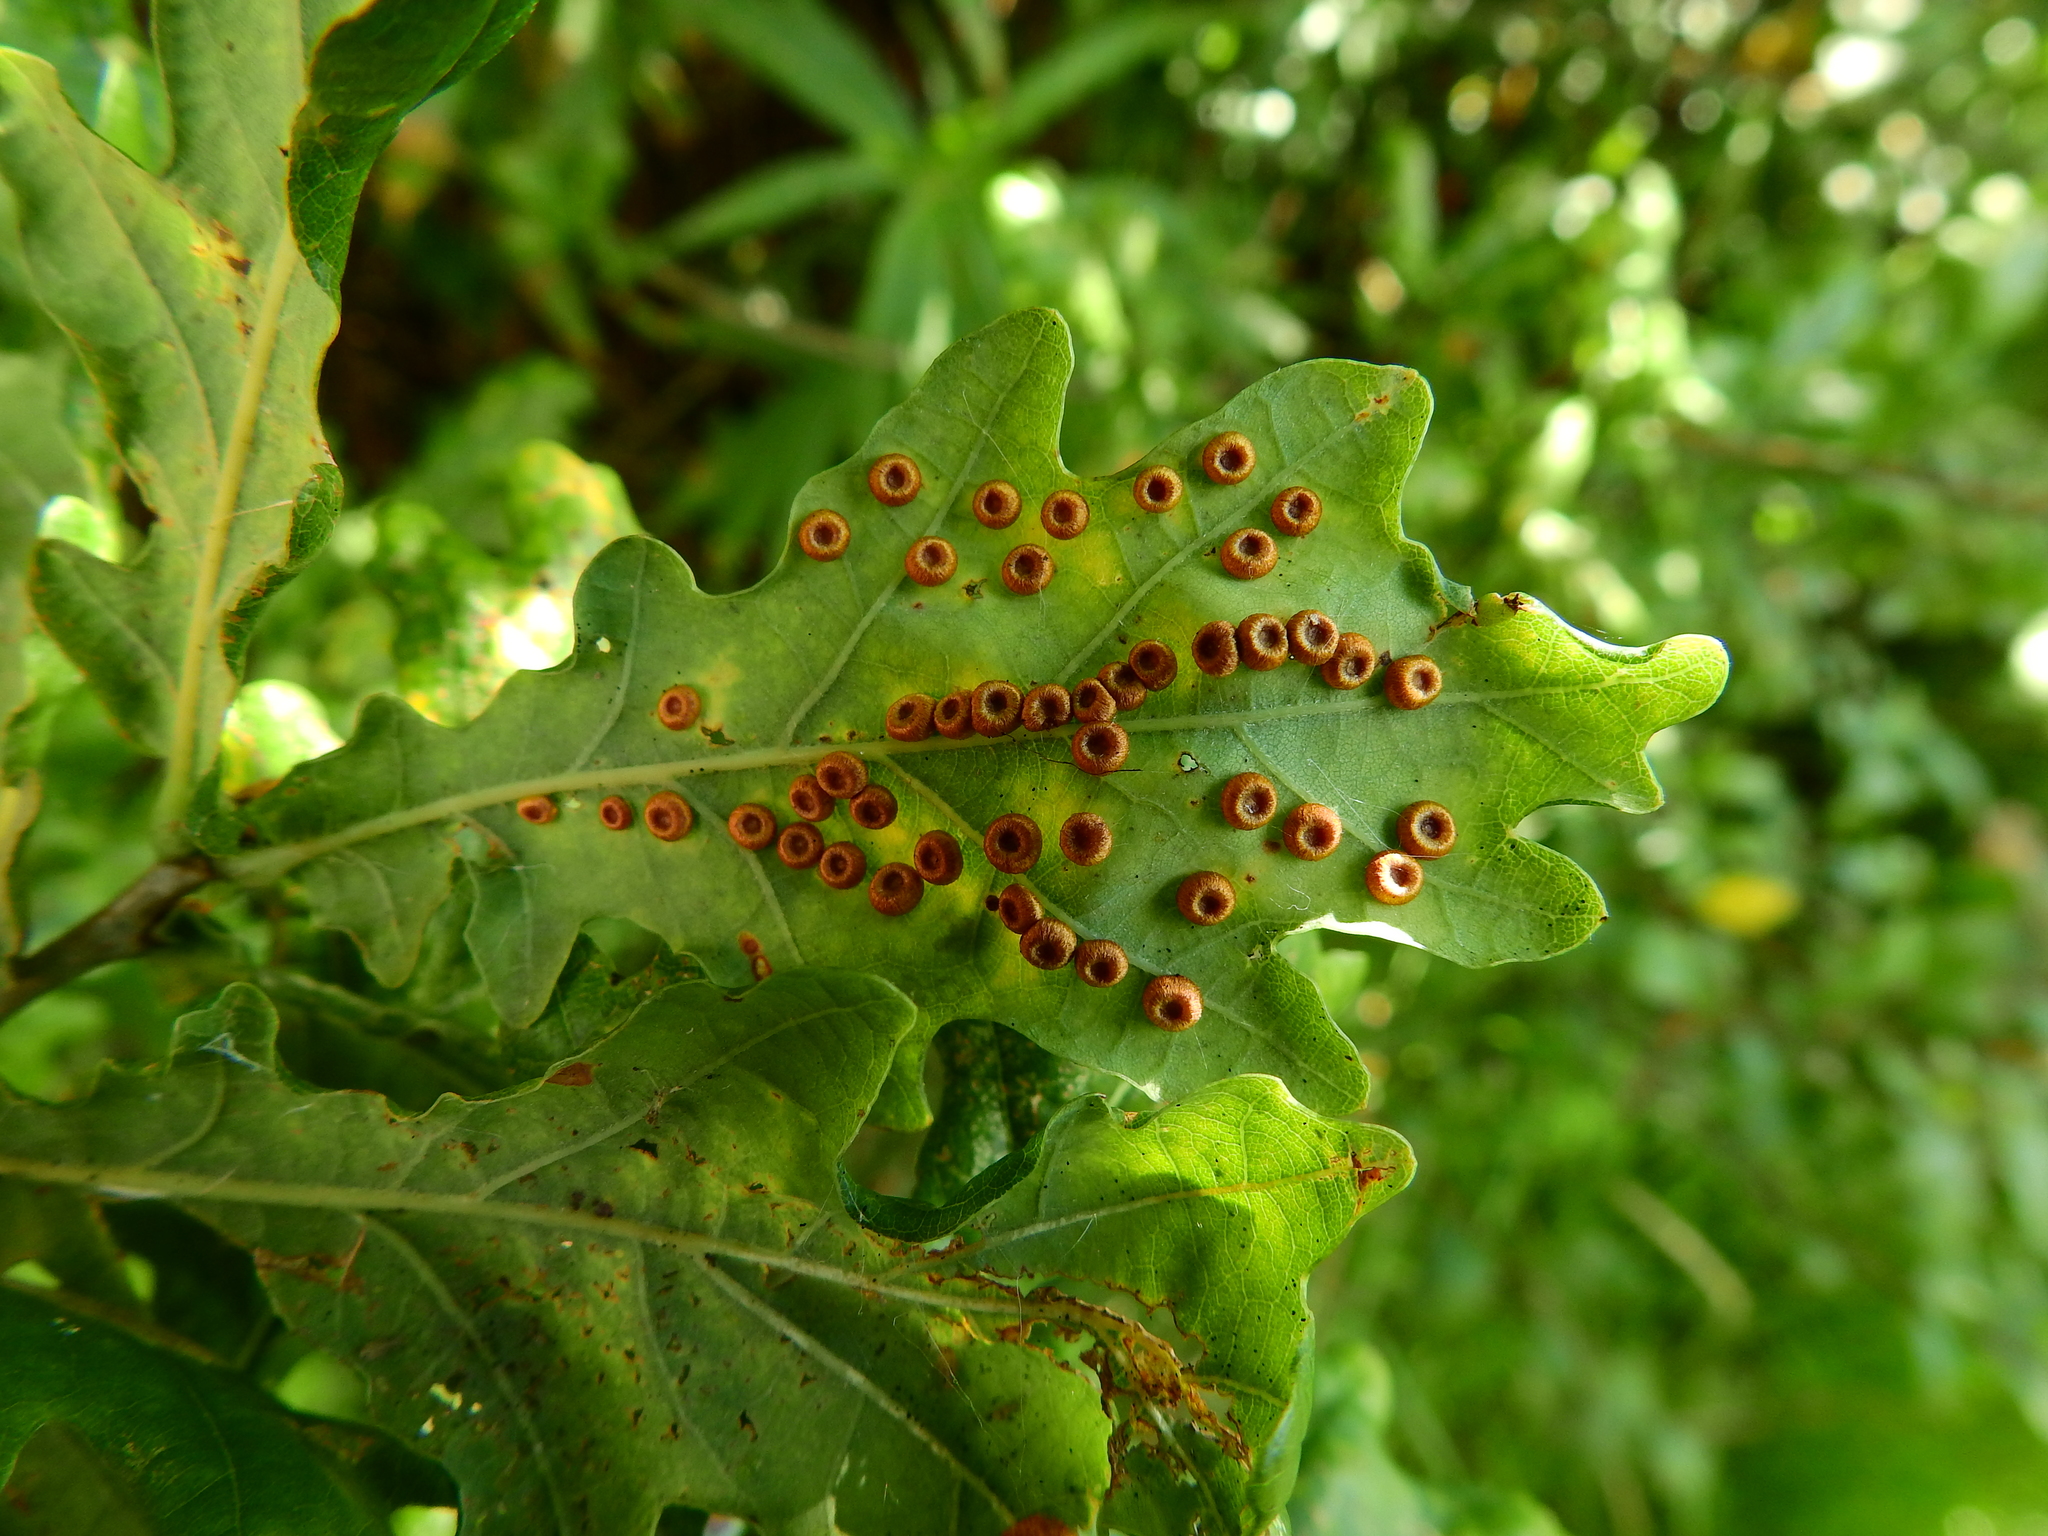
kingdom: Animalia
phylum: Arthropoda
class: Insecta
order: Hymenoptera
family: Cynipidae
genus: Neuroterus
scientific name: Neuroterus numismalis
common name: Silk-button spangle gall
